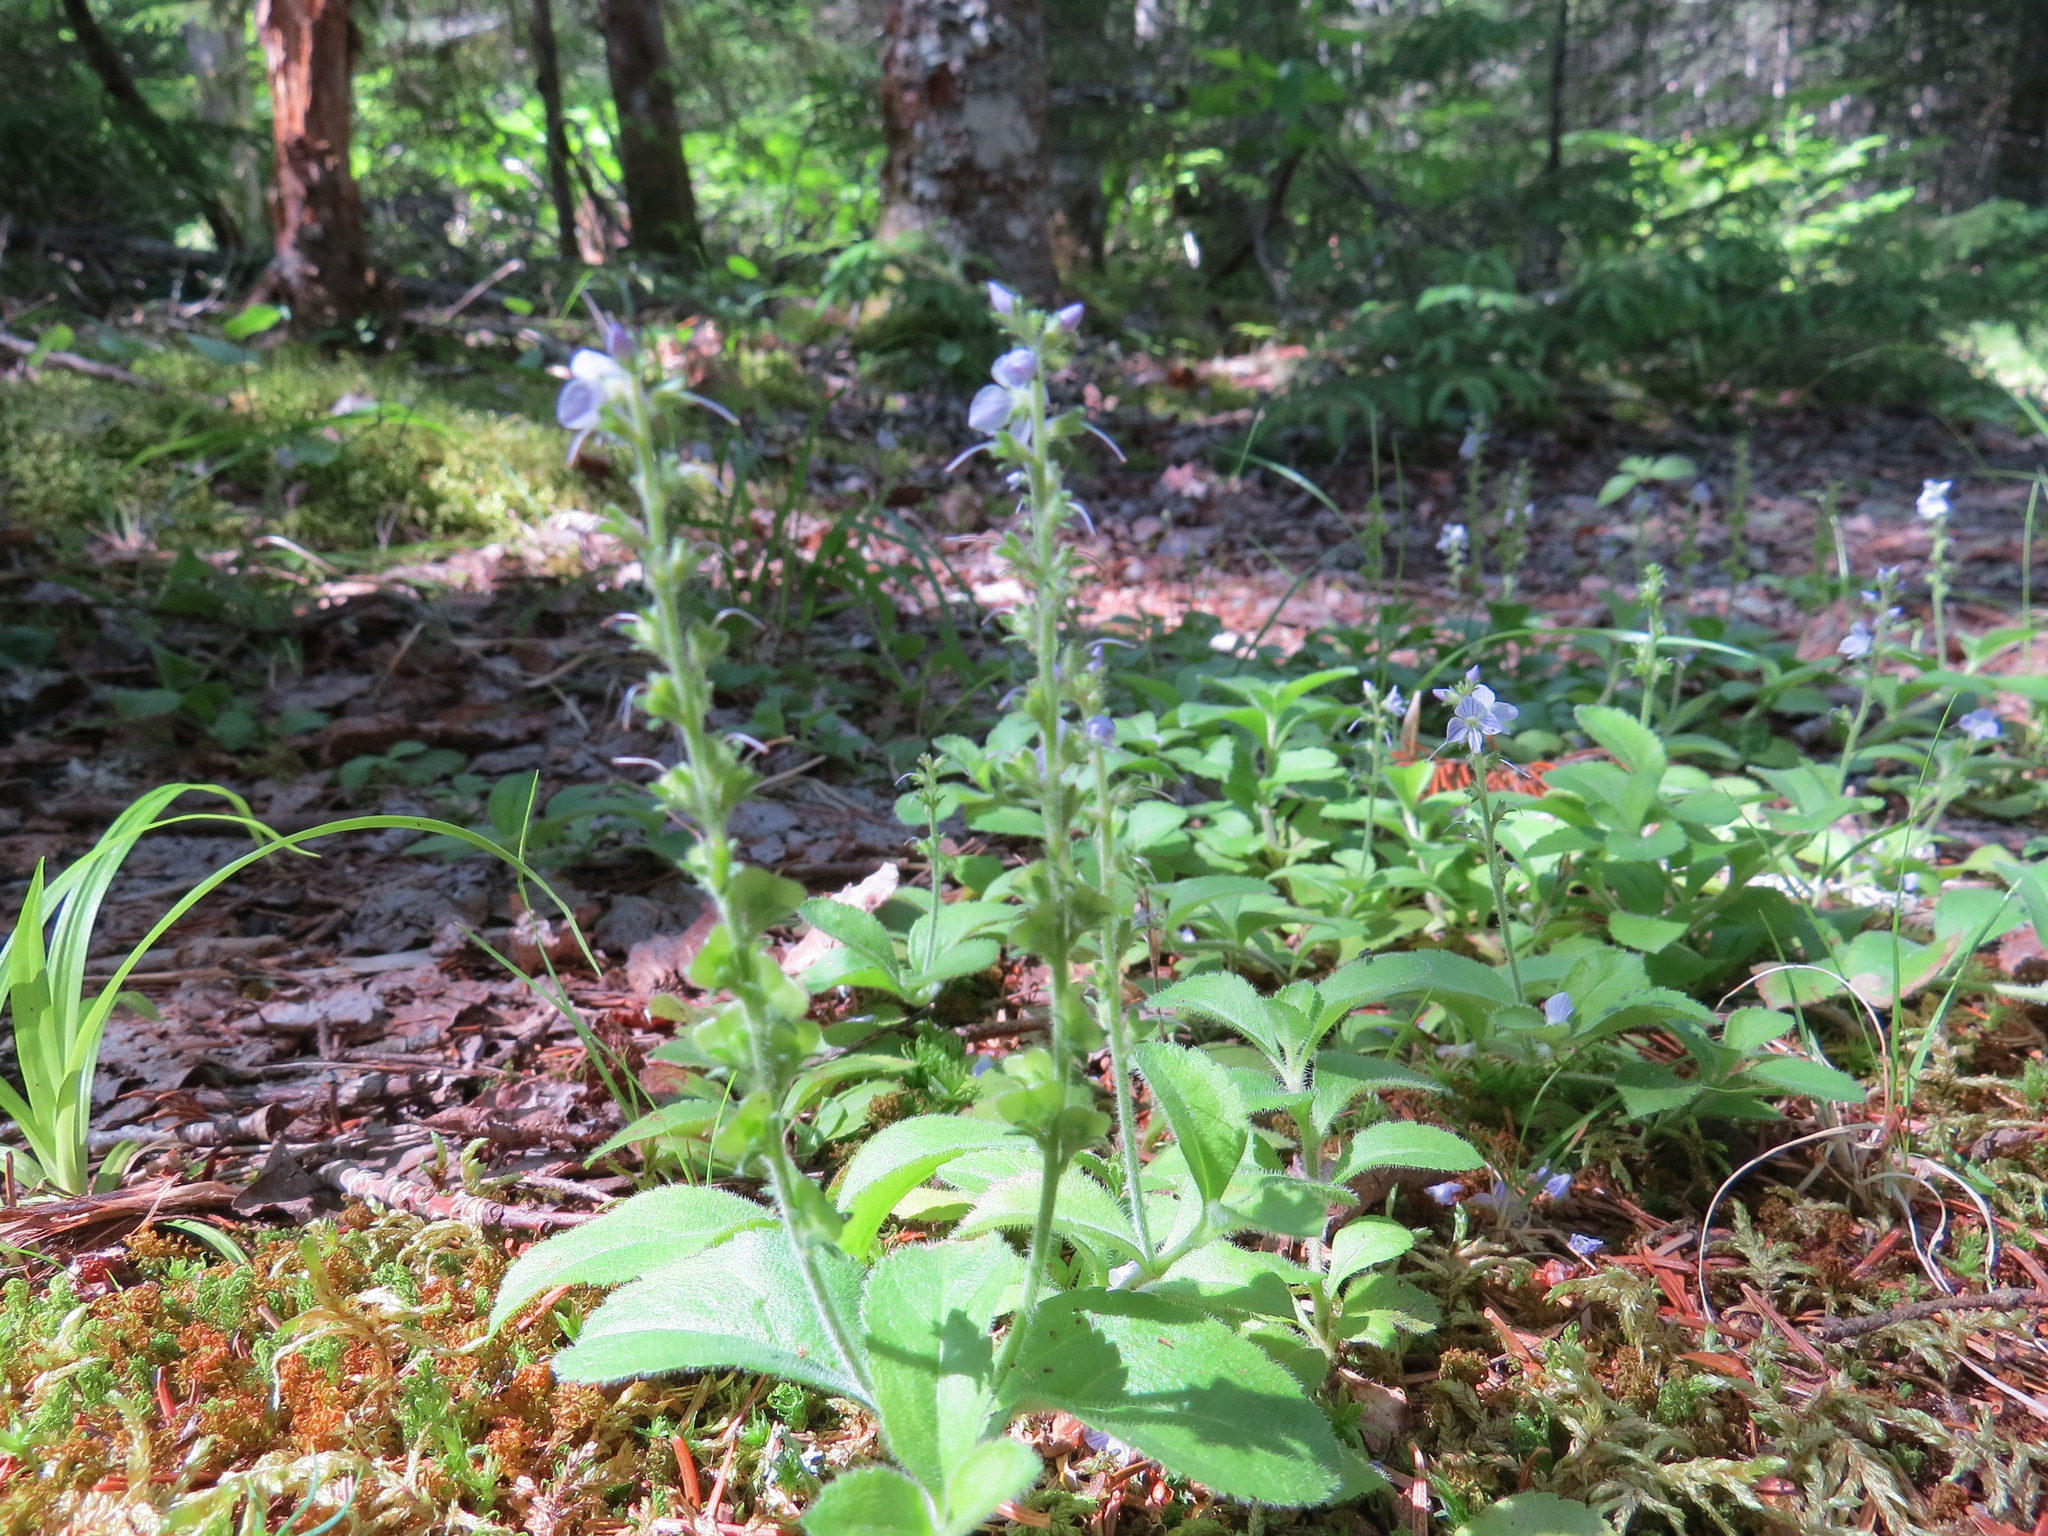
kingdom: Plantae
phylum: Tracheophyta
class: Magnoliopsida
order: Lamiales
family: Plantaginaceae
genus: Veronica
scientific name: Veronica officinalis
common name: Common speedwell
